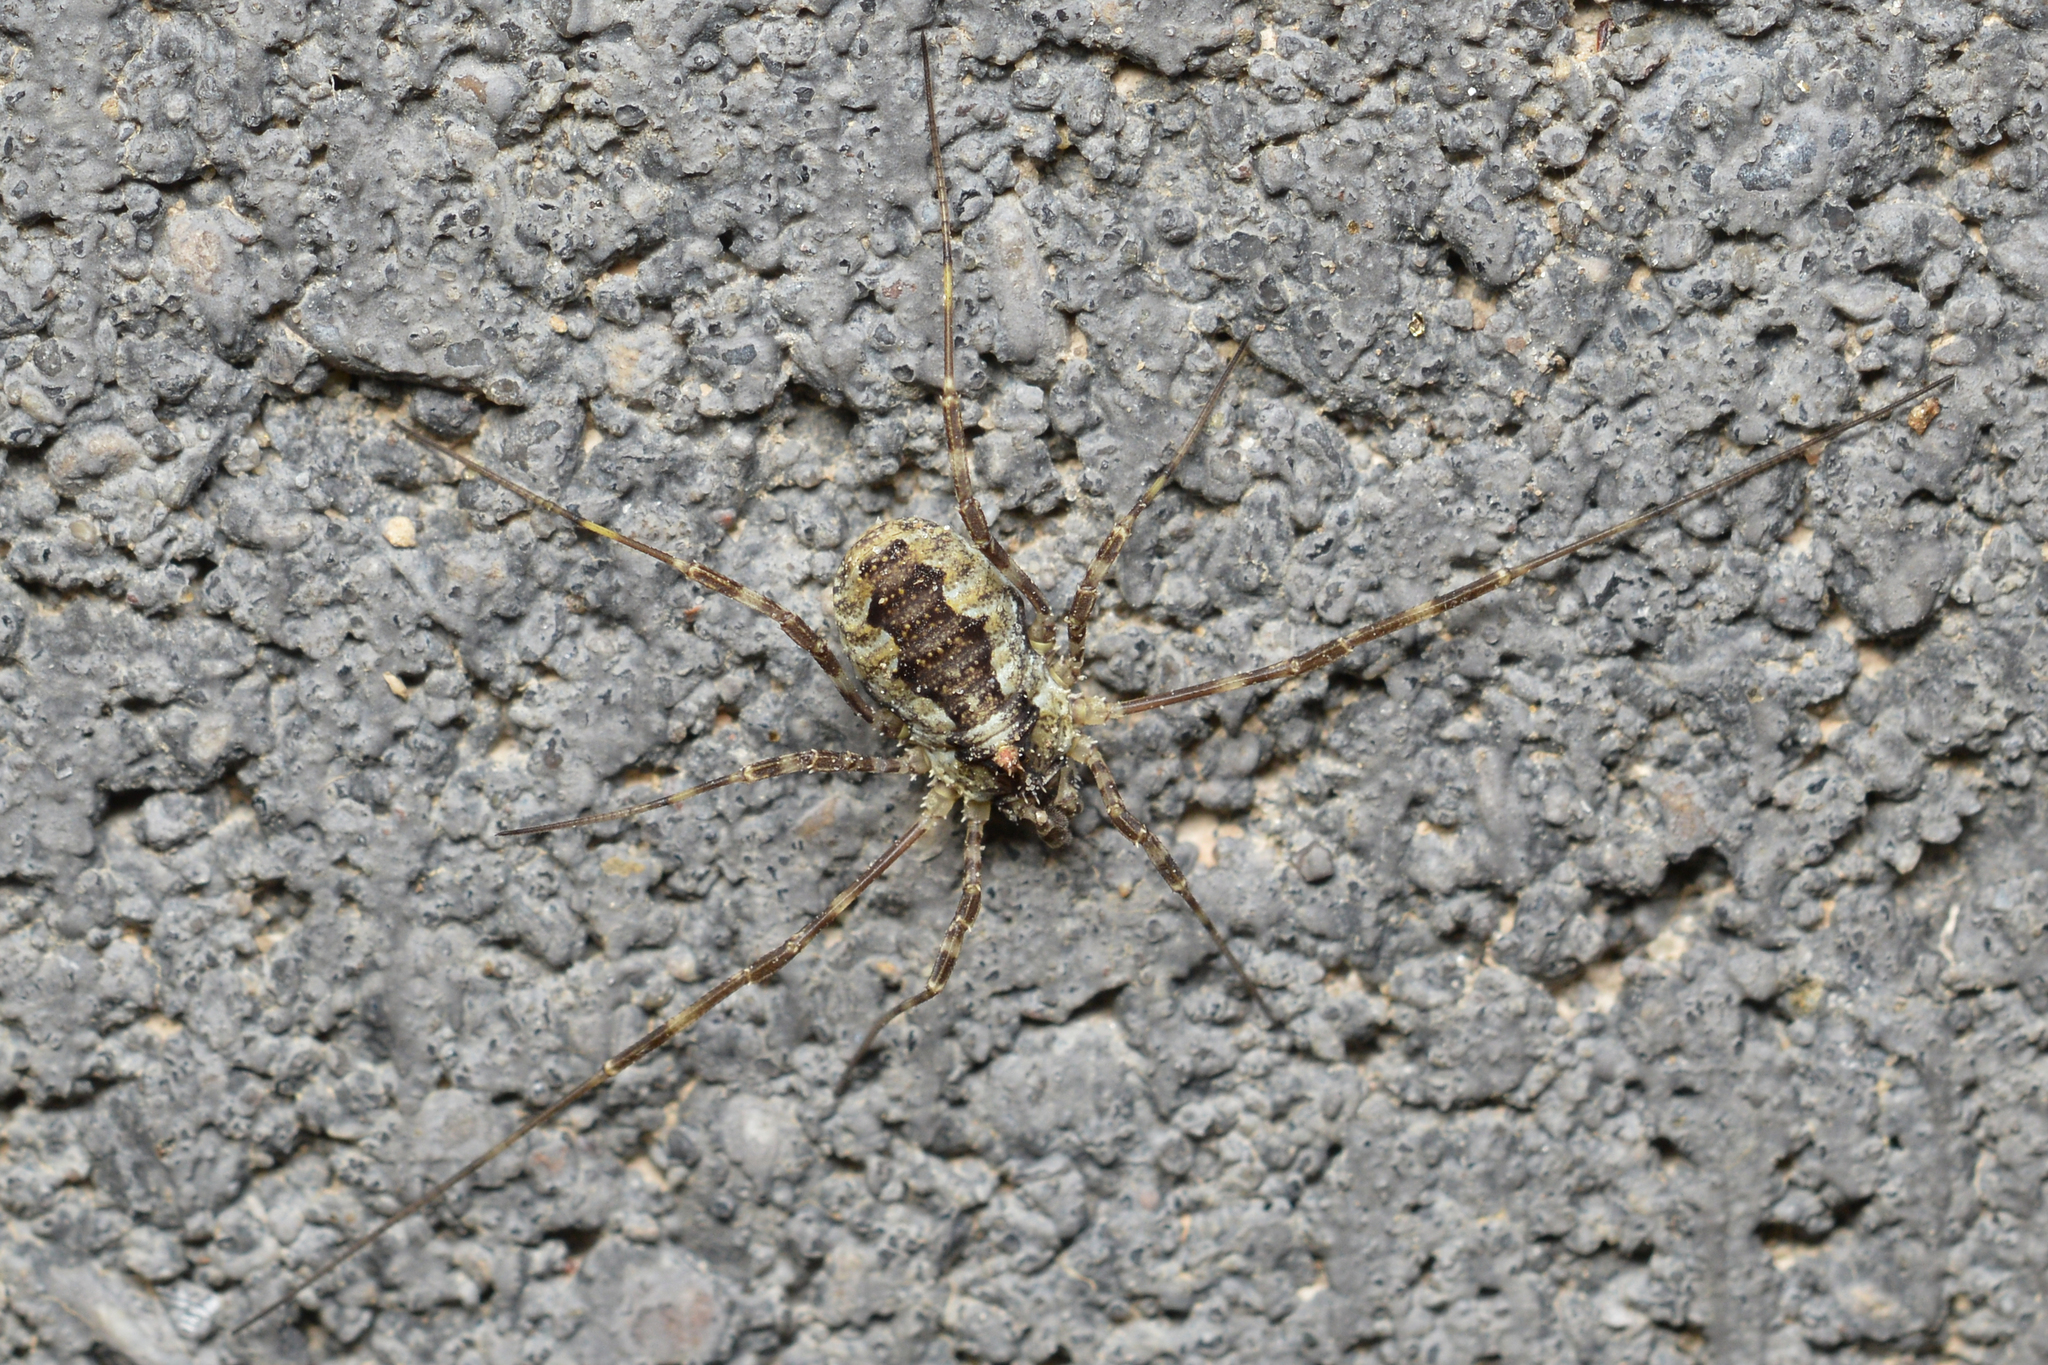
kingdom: Animalia
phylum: Arthropoda
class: Arachnida
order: Opiliones
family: Phalangiidae
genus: Odiellus
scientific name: Odiellus pictus
